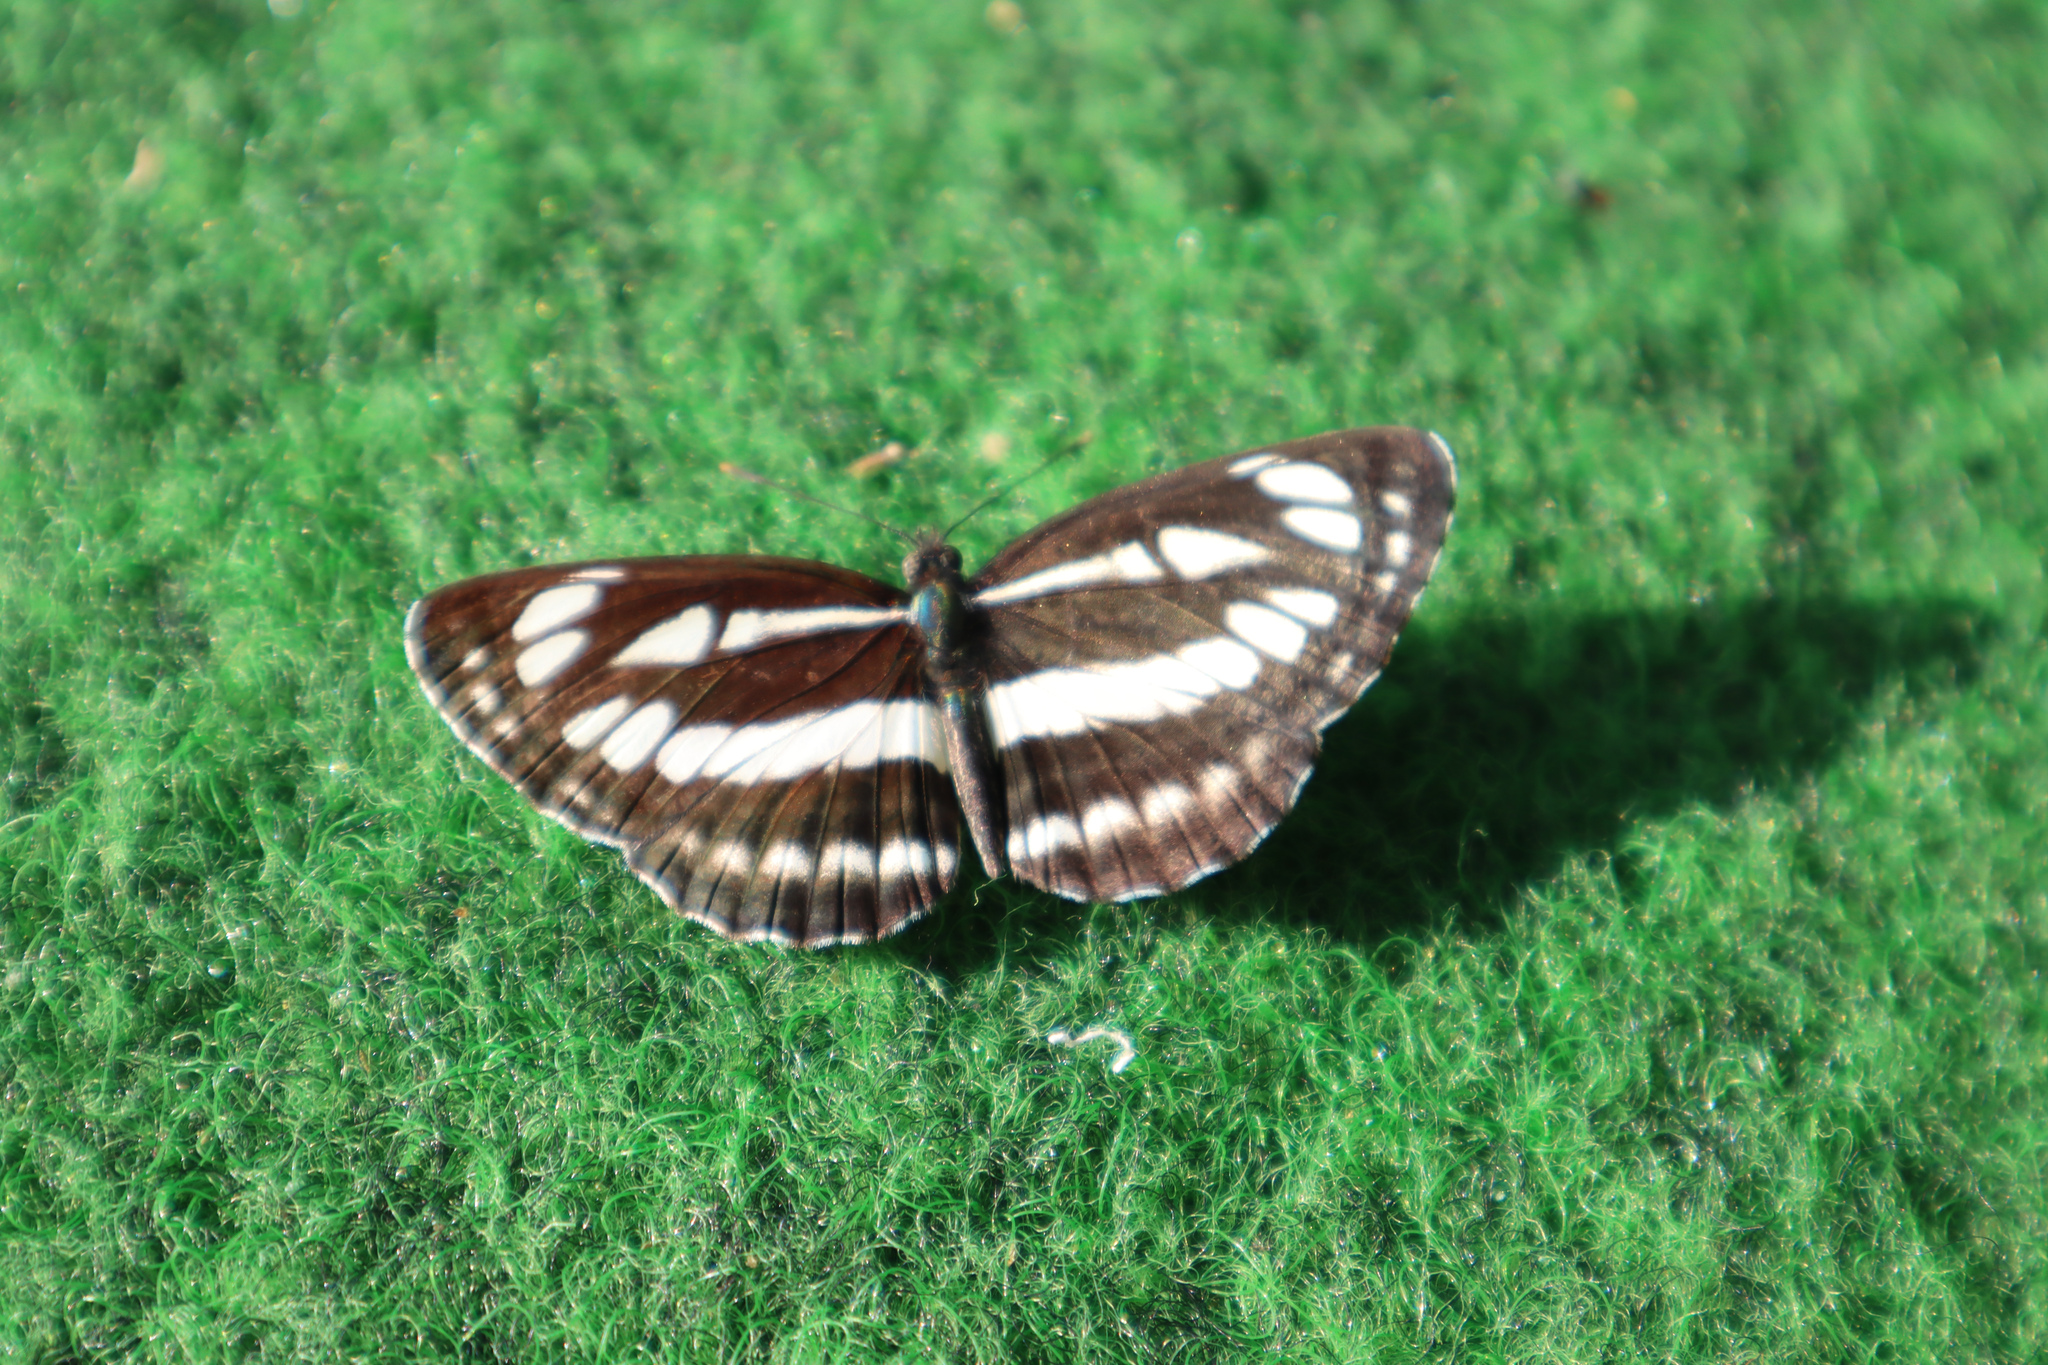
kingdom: Animalia
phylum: Arthropoda
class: Insecta
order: Lepidoptera
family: Nymphalidae
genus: Neptis
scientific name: Neptis sappho
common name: Common glider
